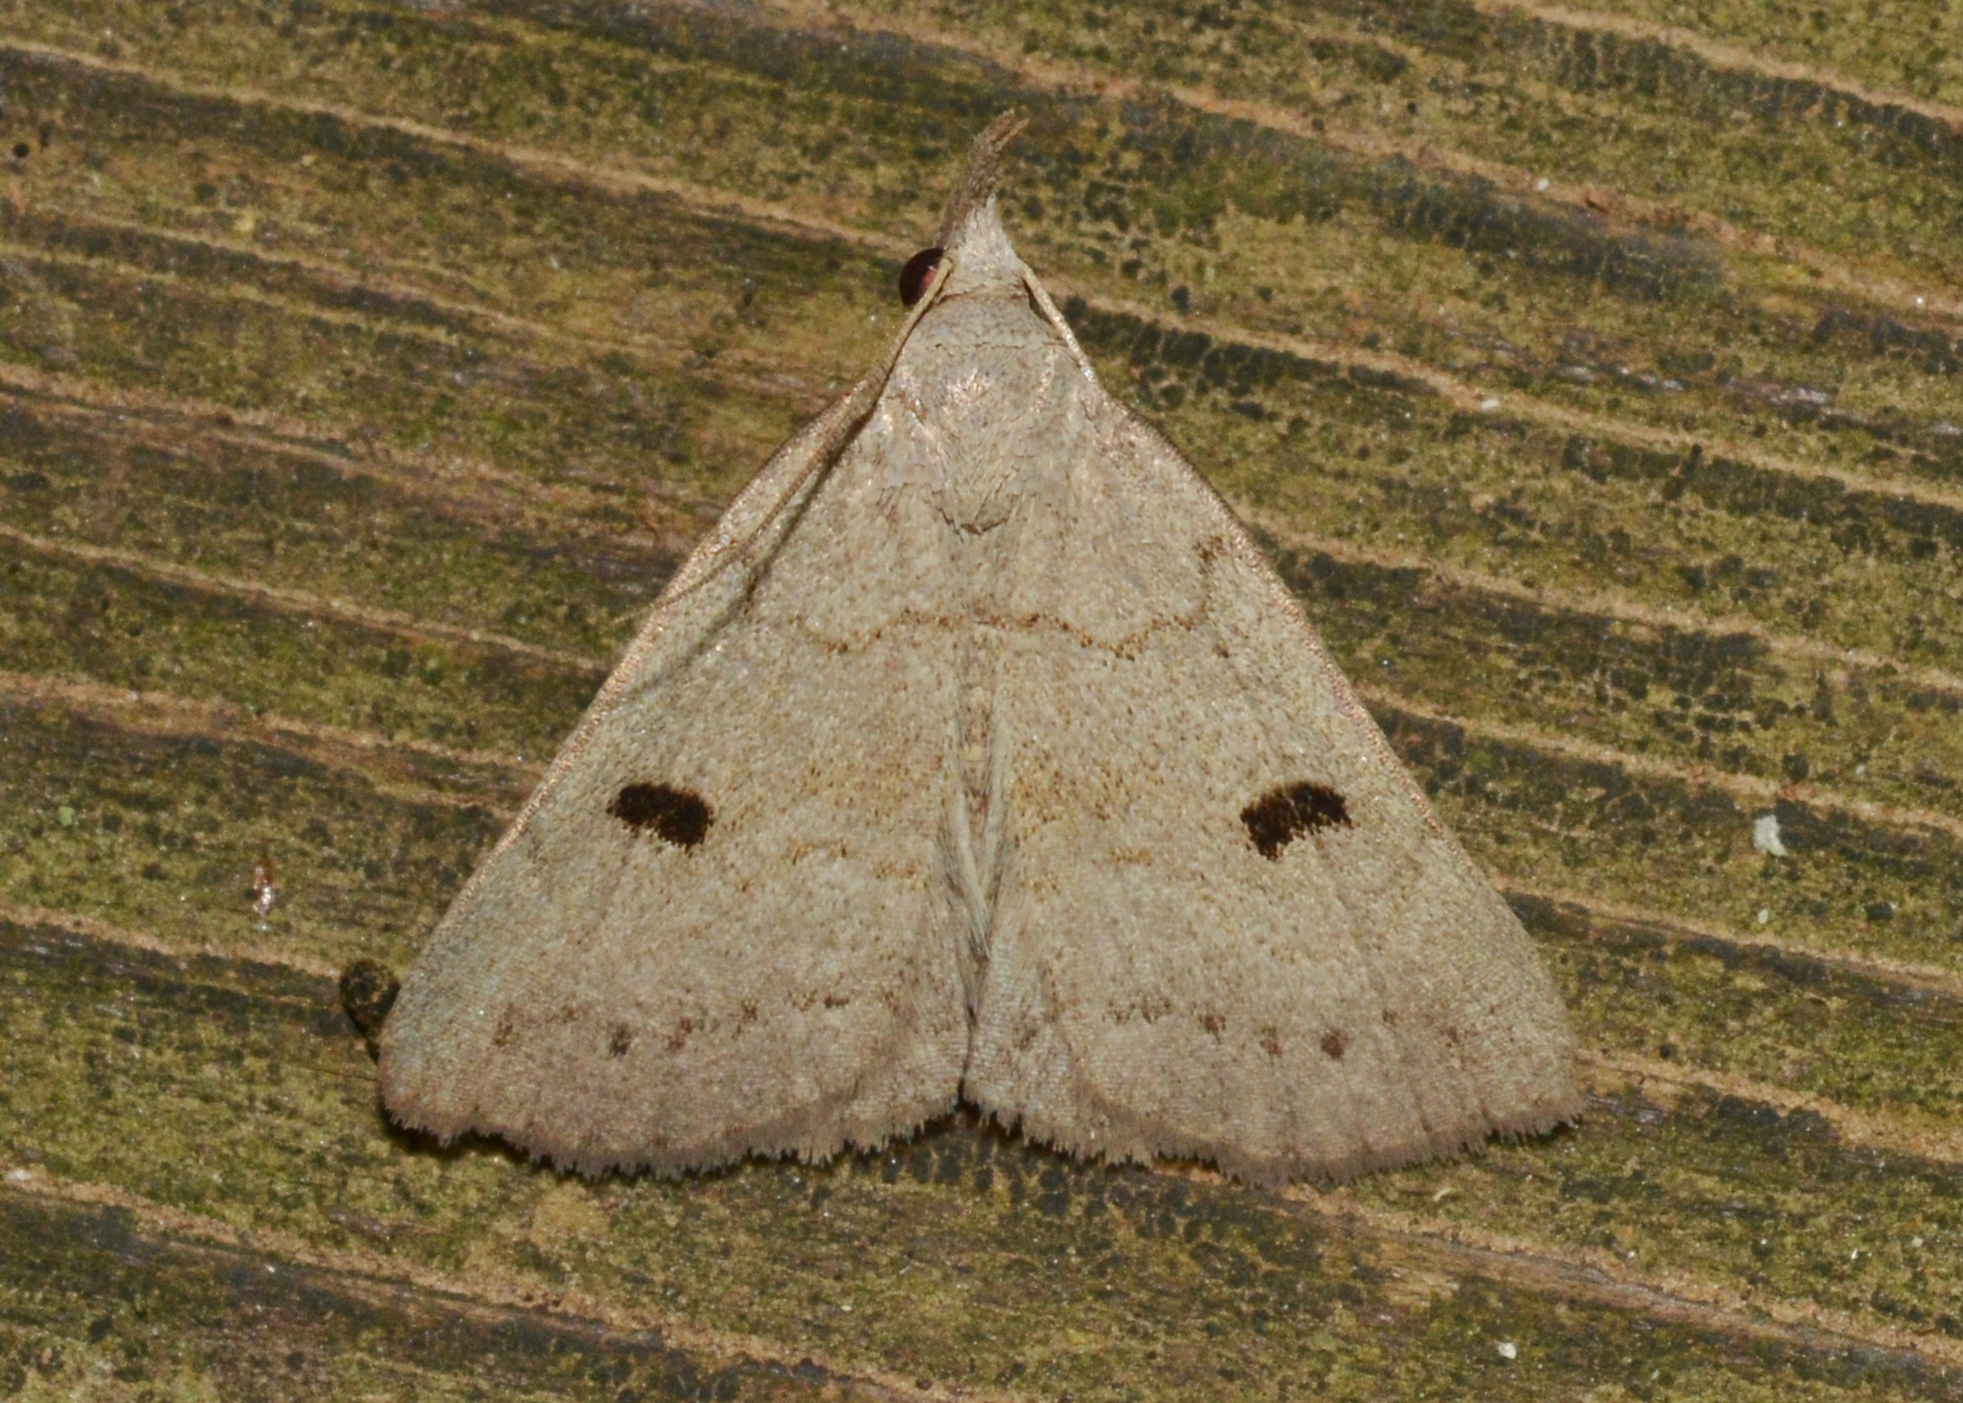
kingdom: Animalia
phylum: Arthropoda
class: Insecta
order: Lepidoptera
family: Erebidae
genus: Macrochilo
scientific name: Macrochilo morbidalis
